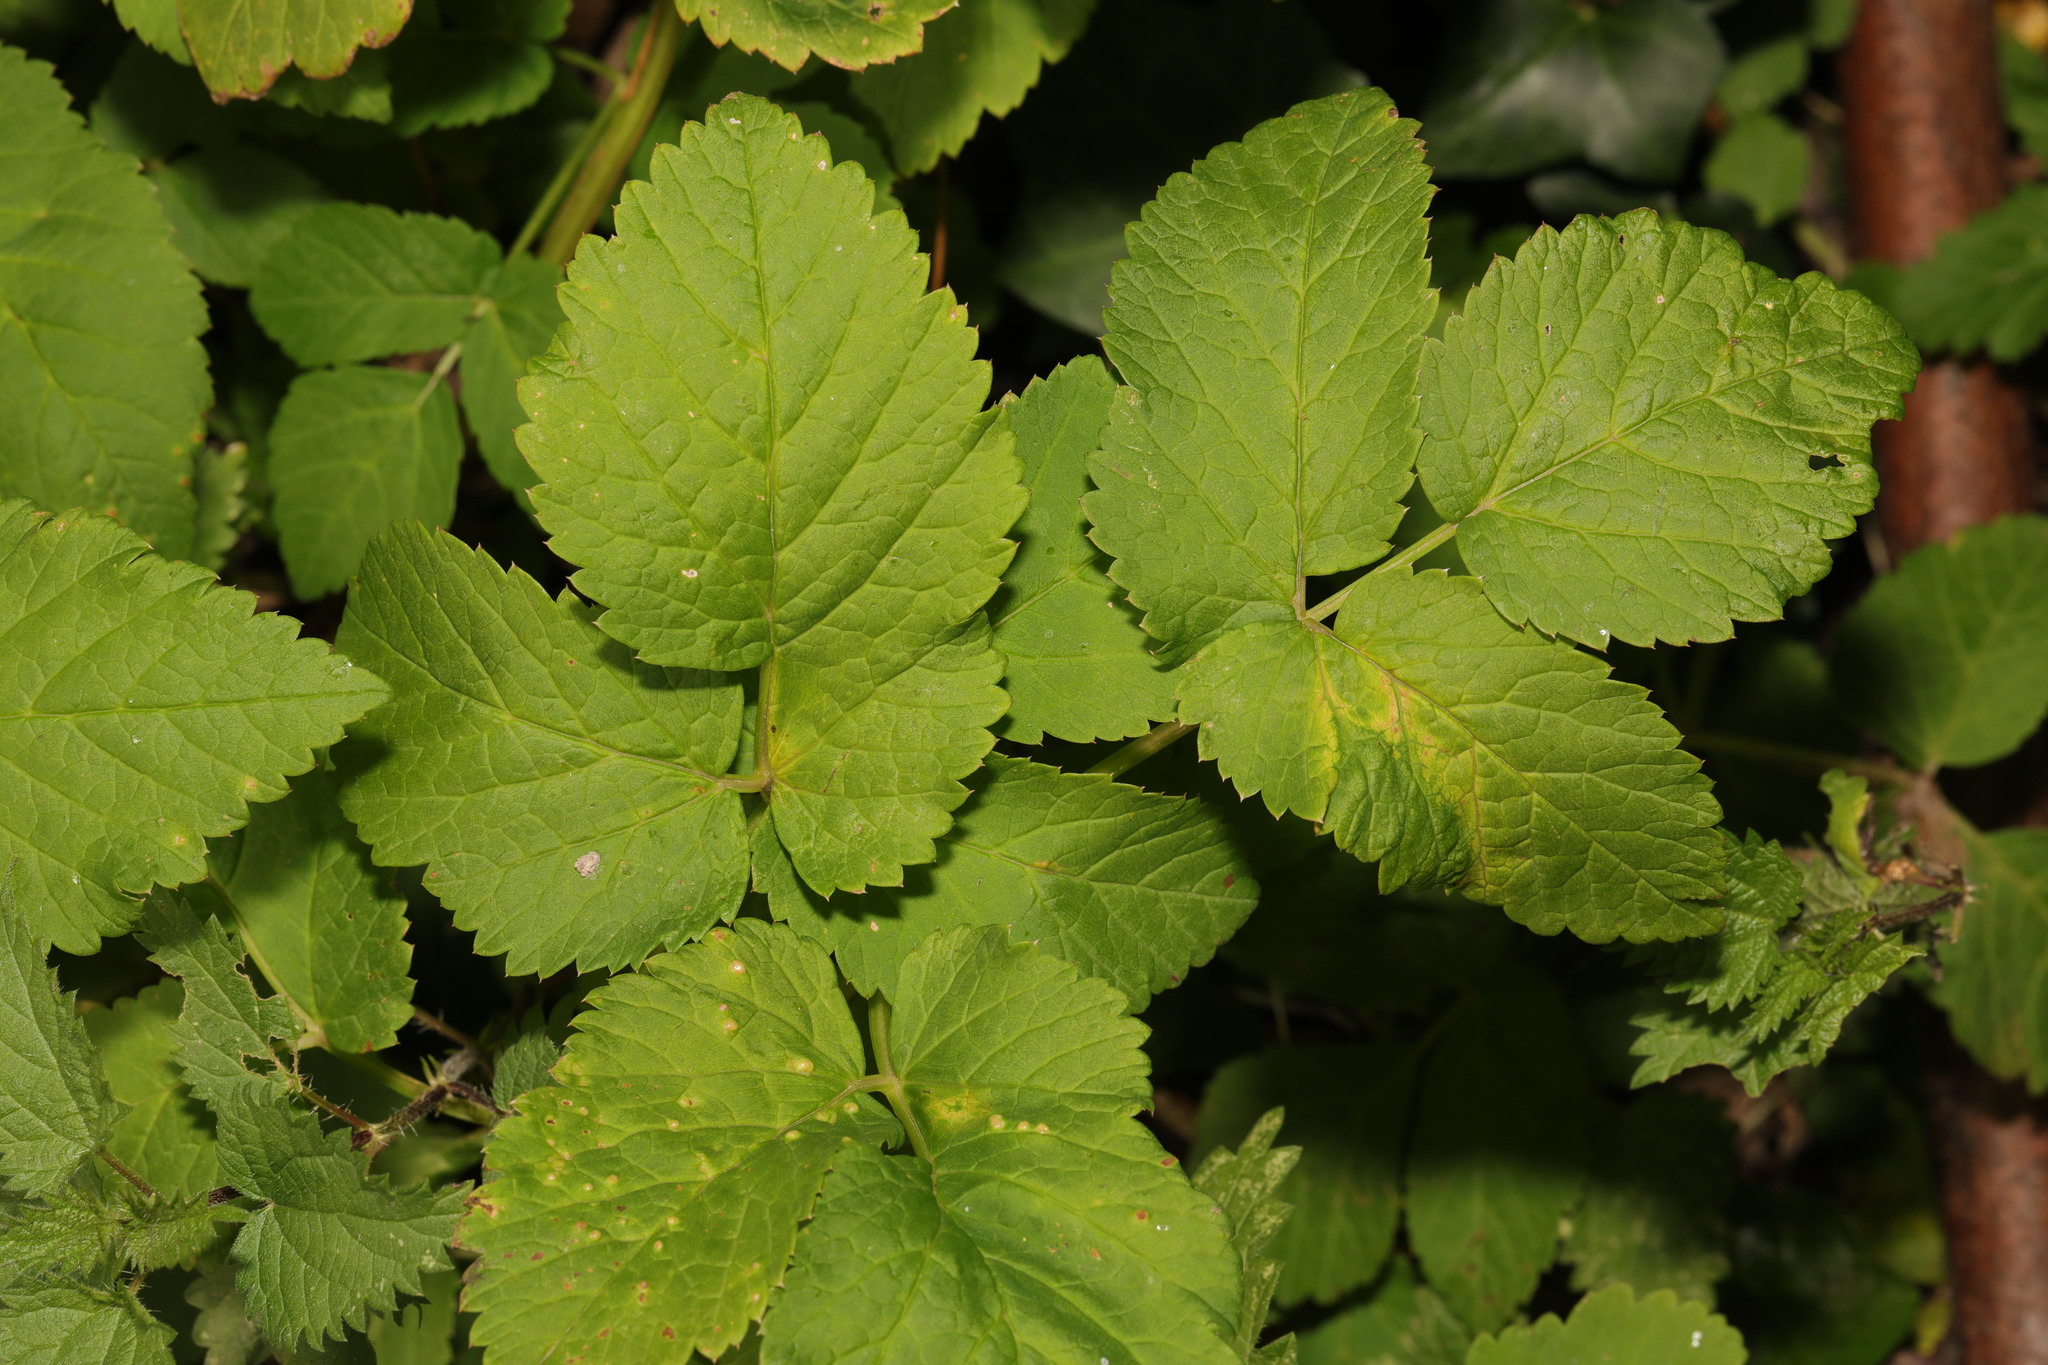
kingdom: Plantae
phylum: Tracheophyta
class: Magnoliopsida
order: Apiales
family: Apiaceae
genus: Aegopodium
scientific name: Aegopodium podagraria
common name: Ground-elder
